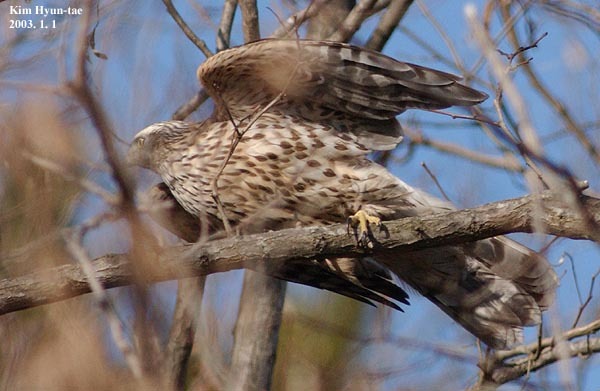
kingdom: Animalia
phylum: Chordata
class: Aves
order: Accipitriformes
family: Accipitridae
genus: Accipiter
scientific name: Accipiter gentilis
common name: Northern goshawk
